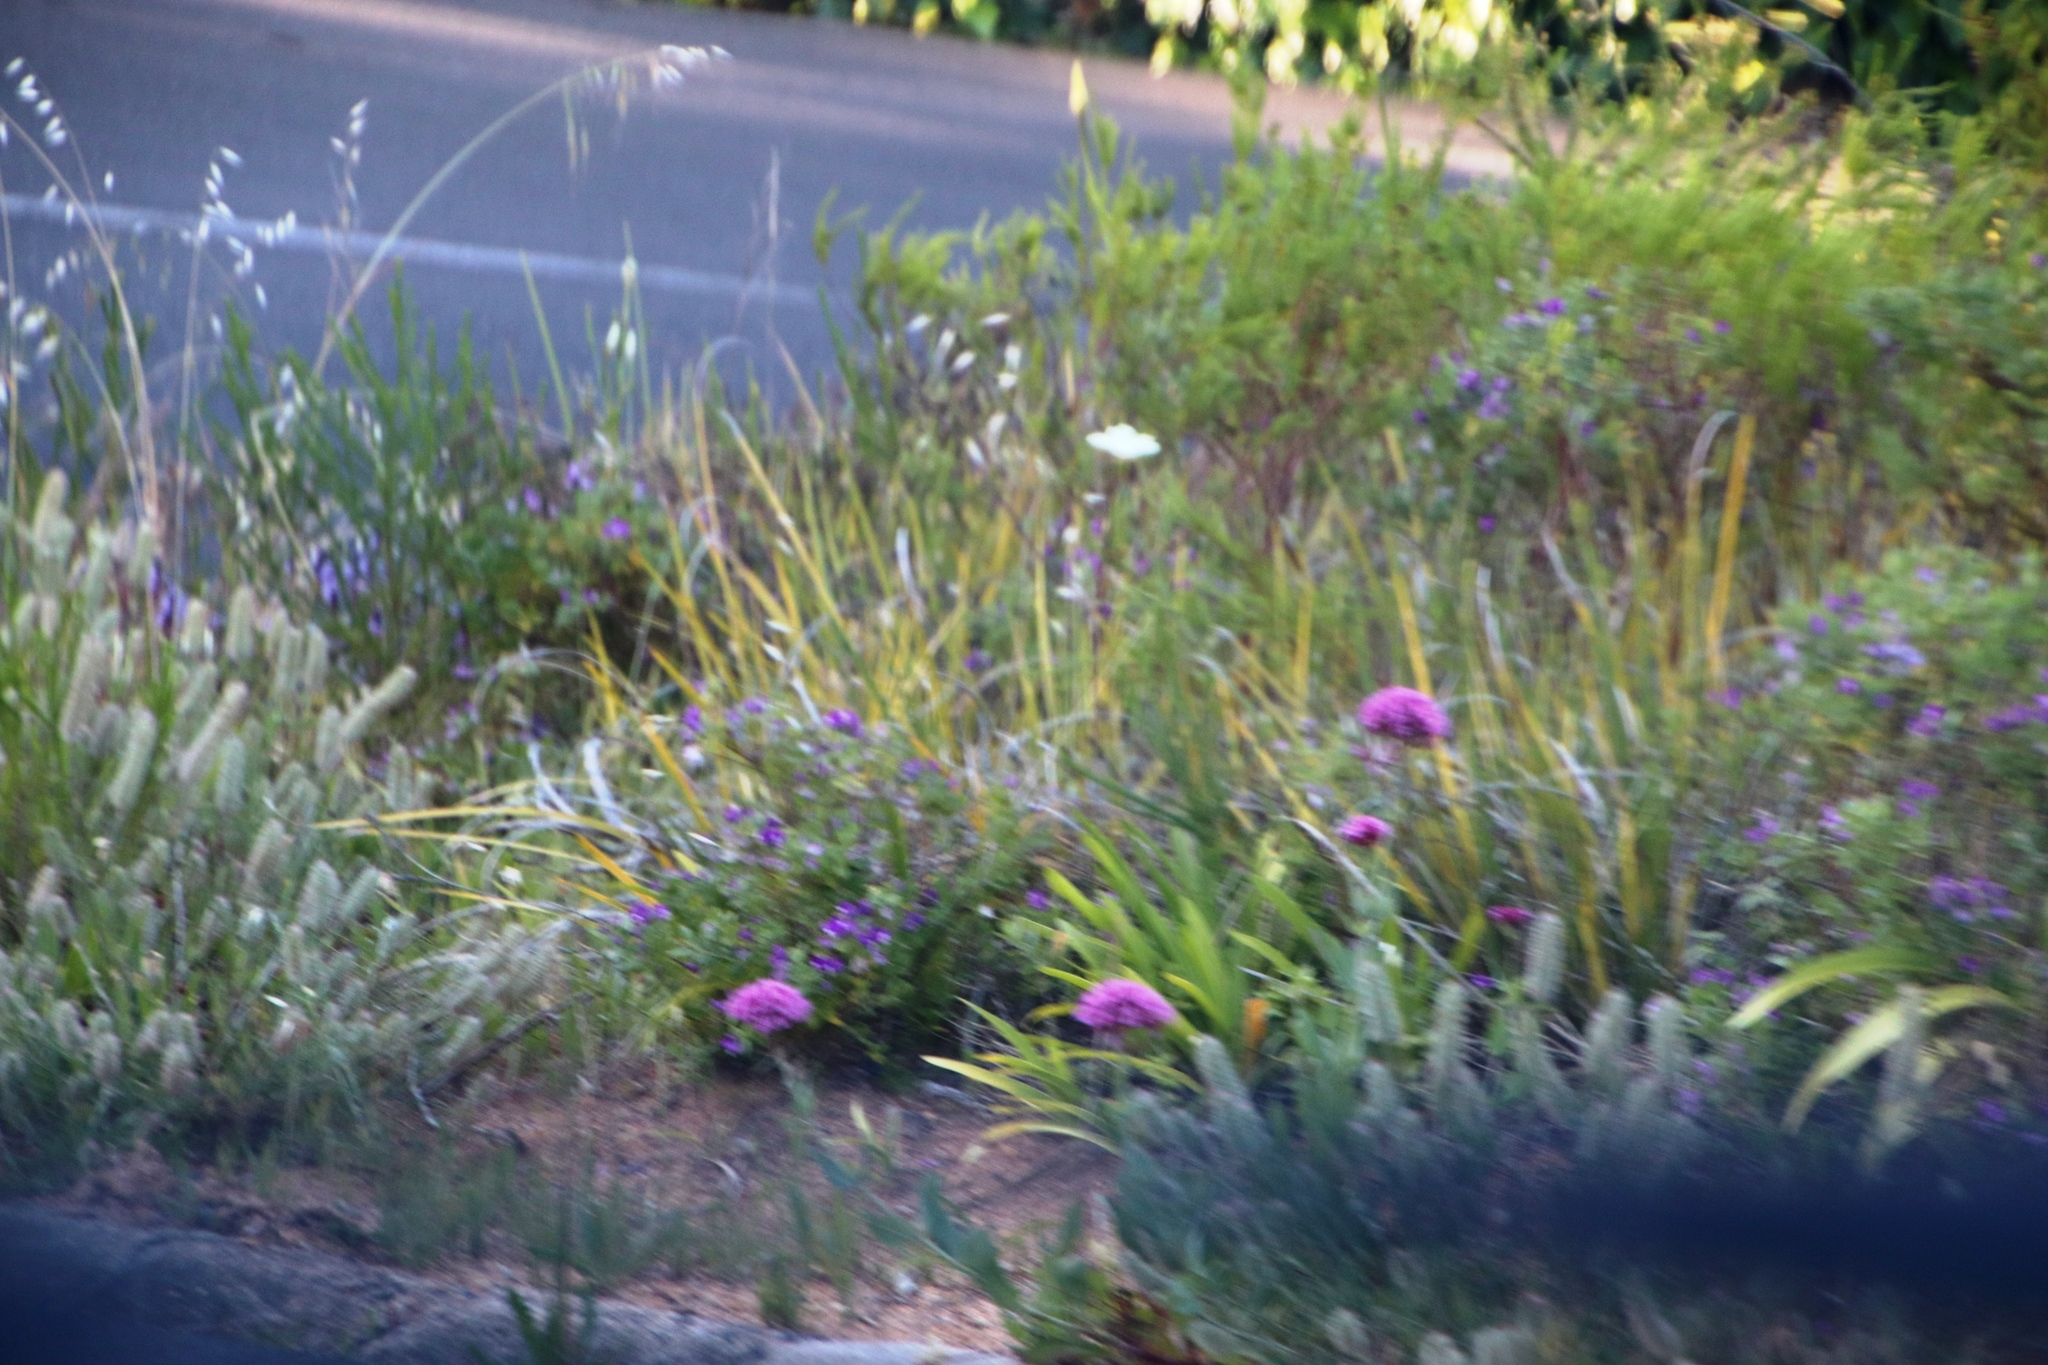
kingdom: Plantae
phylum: Tracheophyta
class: Magnoliopsida
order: Dipsacales
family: Caprifoliaceae
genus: Centranthus
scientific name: Centranthus ruber
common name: Red valerian
